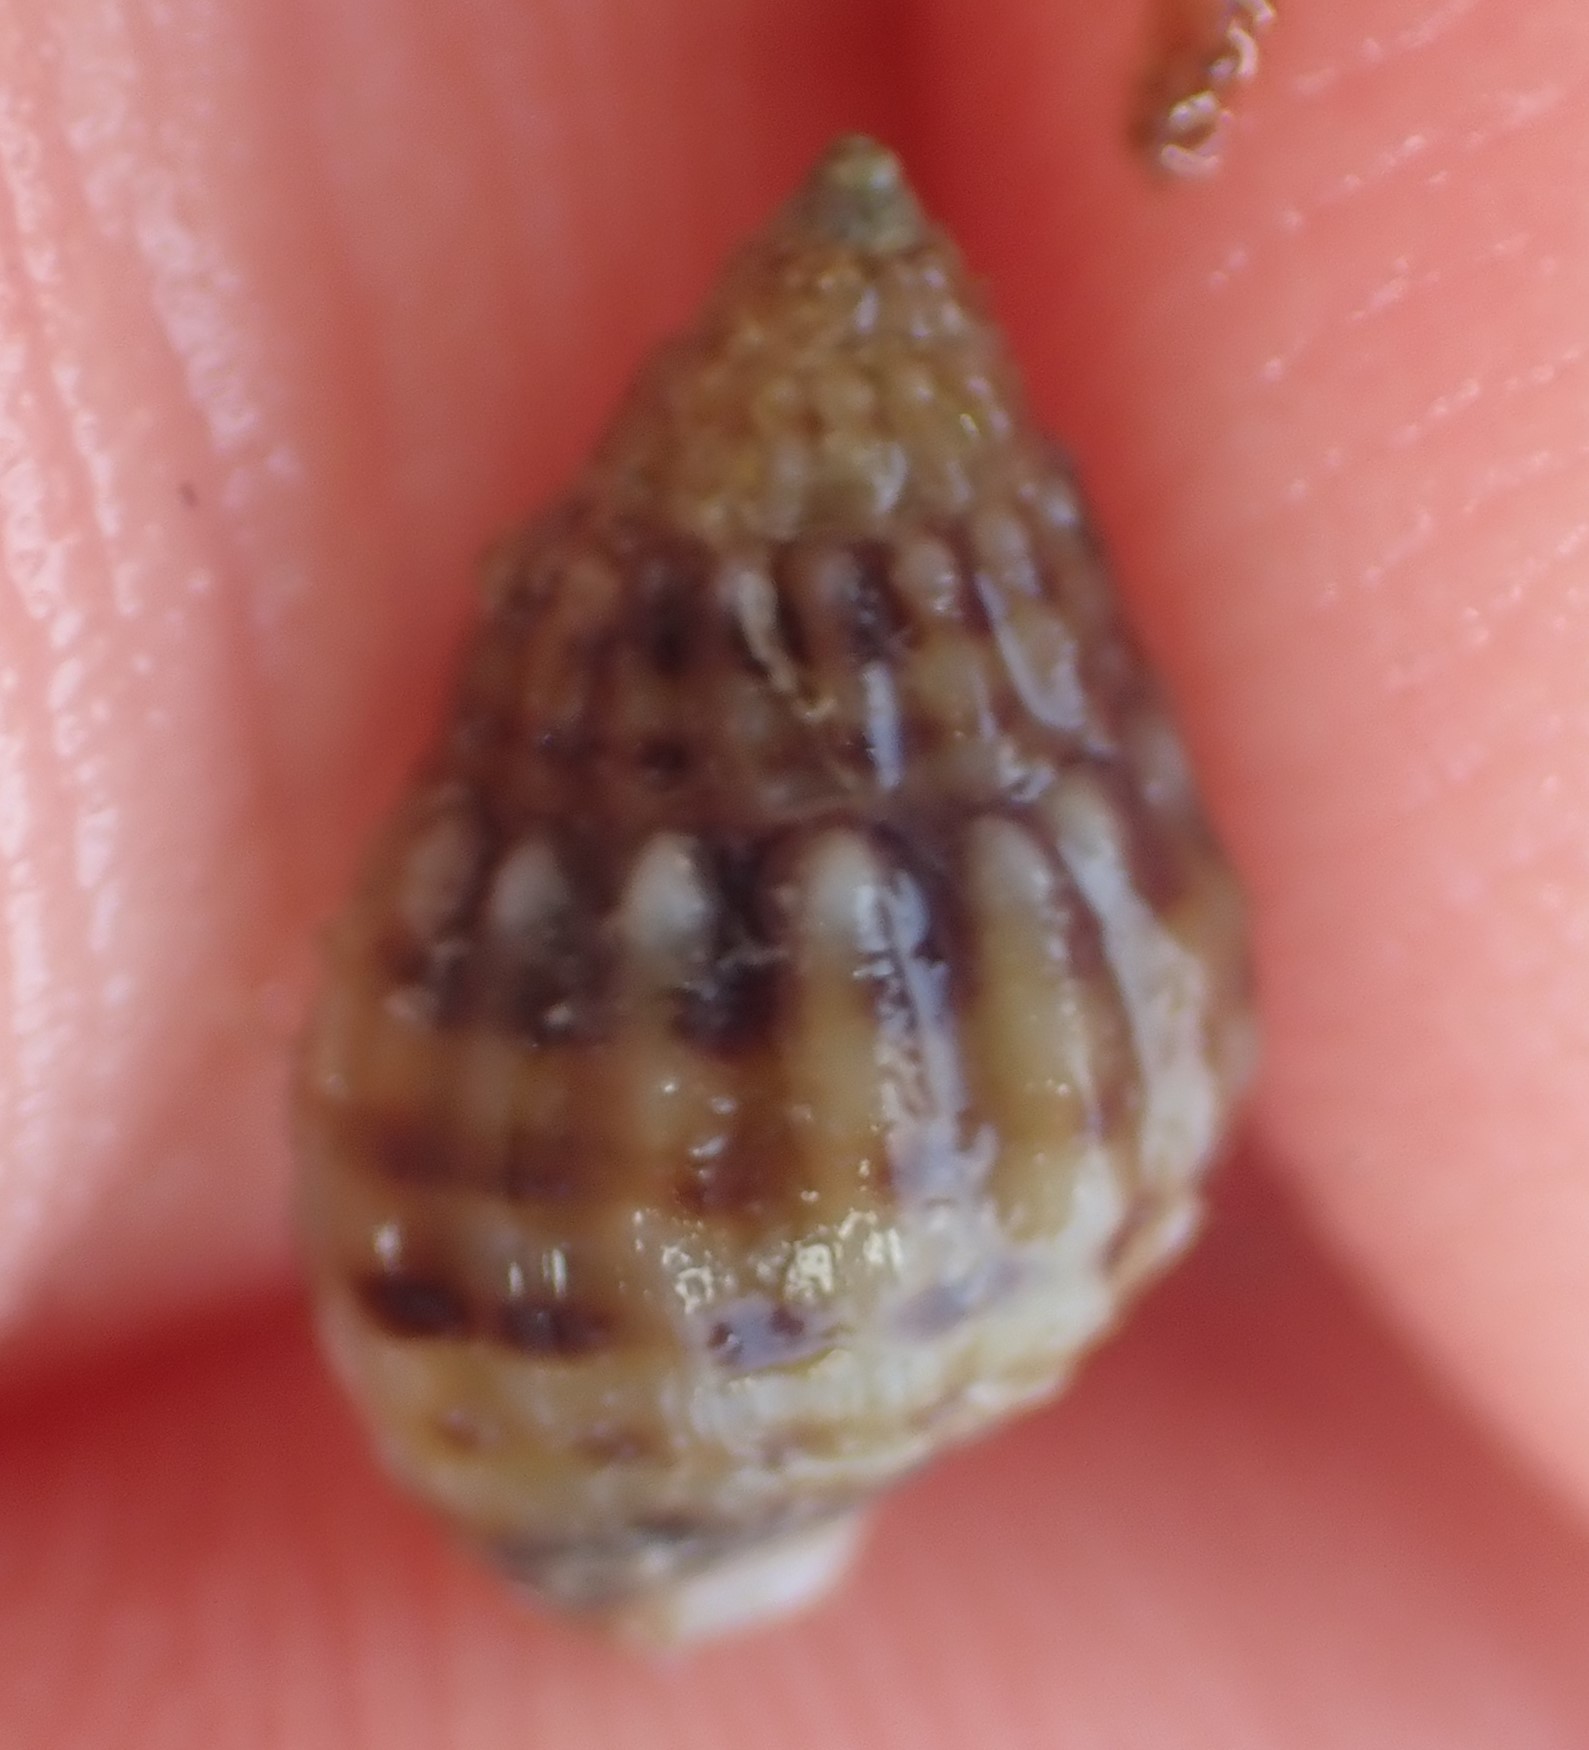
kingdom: Animalia
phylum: Mollusca
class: Gastropoda
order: Neogastropoda
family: Nassariidae
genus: Tritia
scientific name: Tritia burchardi
